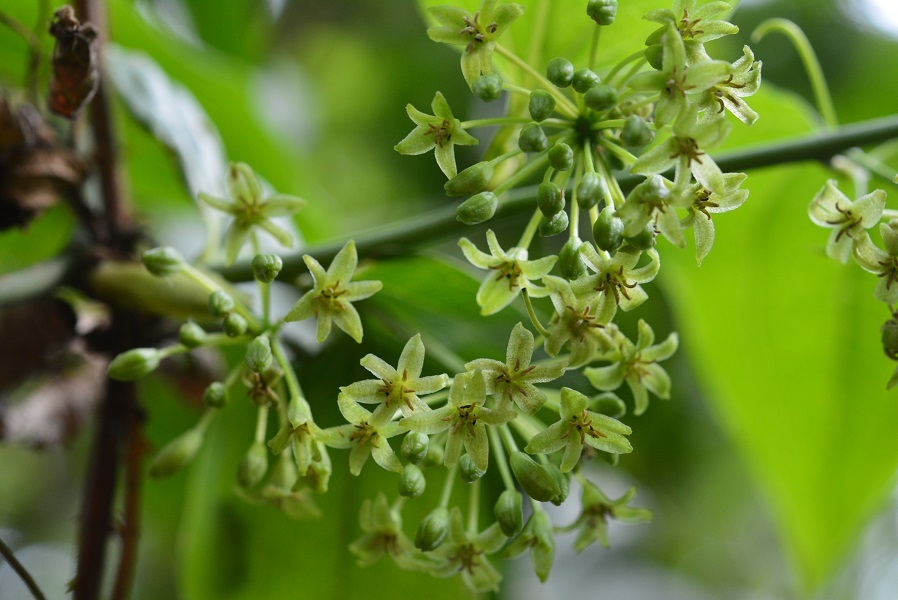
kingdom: Plantae
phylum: Tracheophyta
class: Liliopsida
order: Liliales
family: Smilacaceae
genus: Smilax
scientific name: Smilax subpubescens
